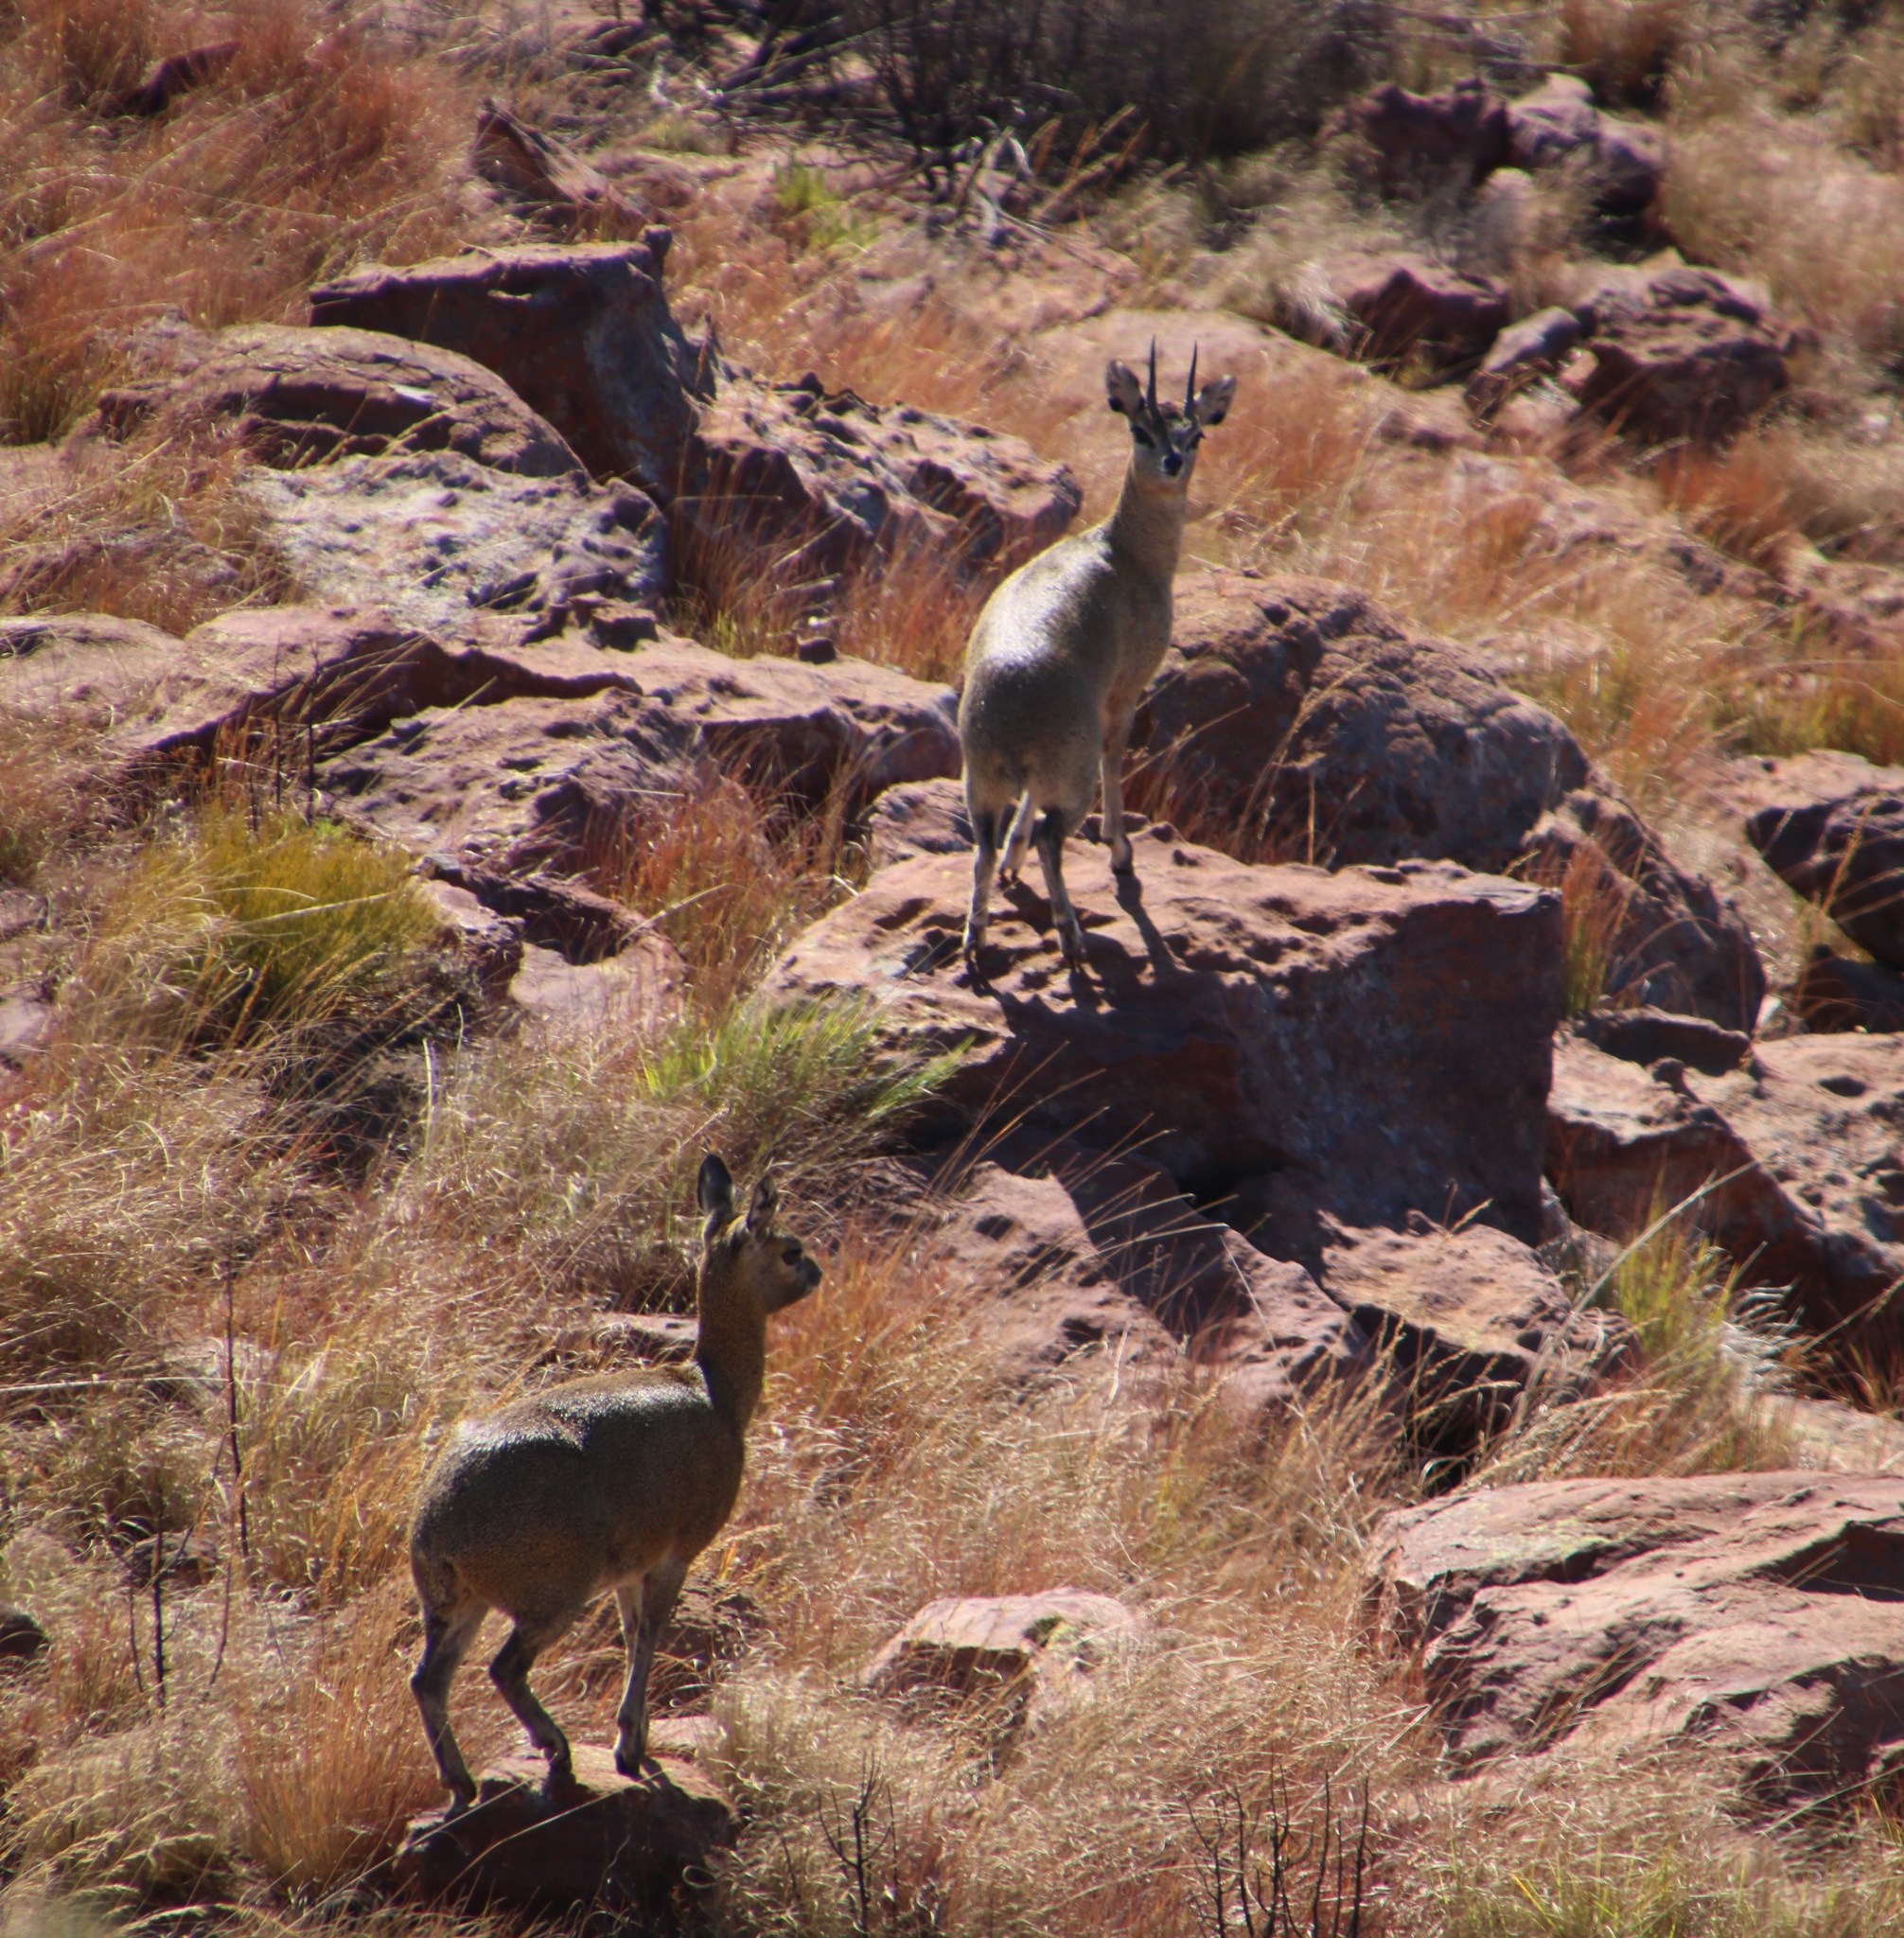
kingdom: Animalia
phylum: Chordata
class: Mammalia
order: Artiodactyla
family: Bovidae
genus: Oreotragus
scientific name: Oreotragus oreotragus
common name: Klipspringer
